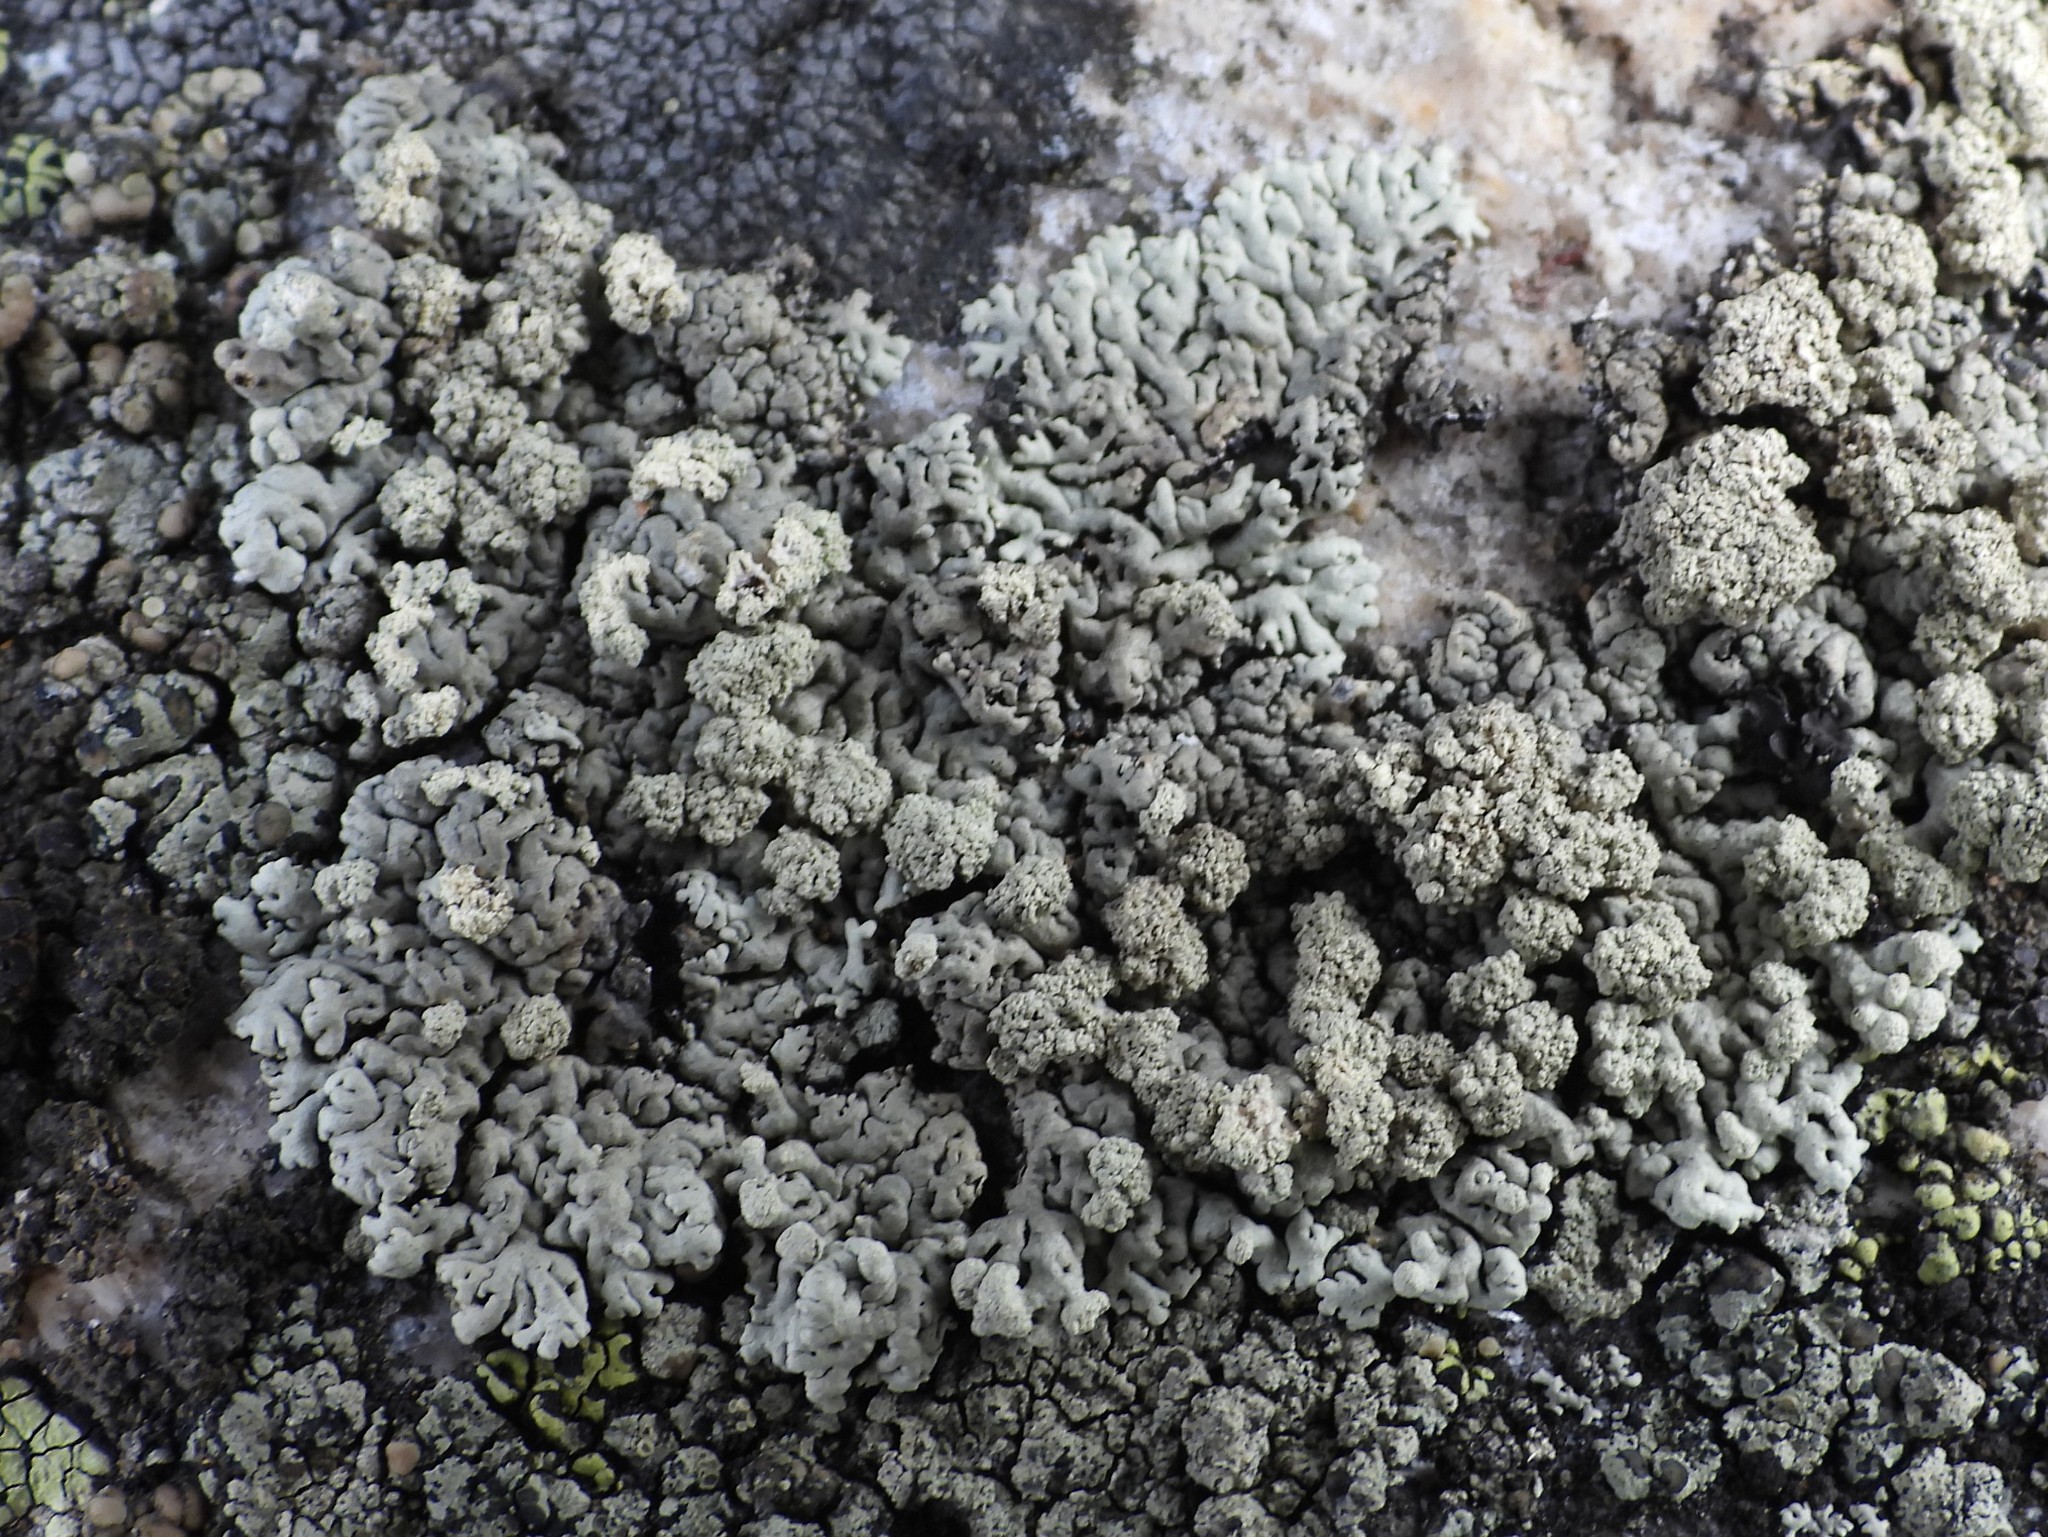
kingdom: Fungi
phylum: Ascomycota
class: Lecanoromycetes
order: Lecanorales
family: Parmeliaceae
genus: Arctoparmelia
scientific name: Arctoparmelia incurva
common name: Bent ring lichen
